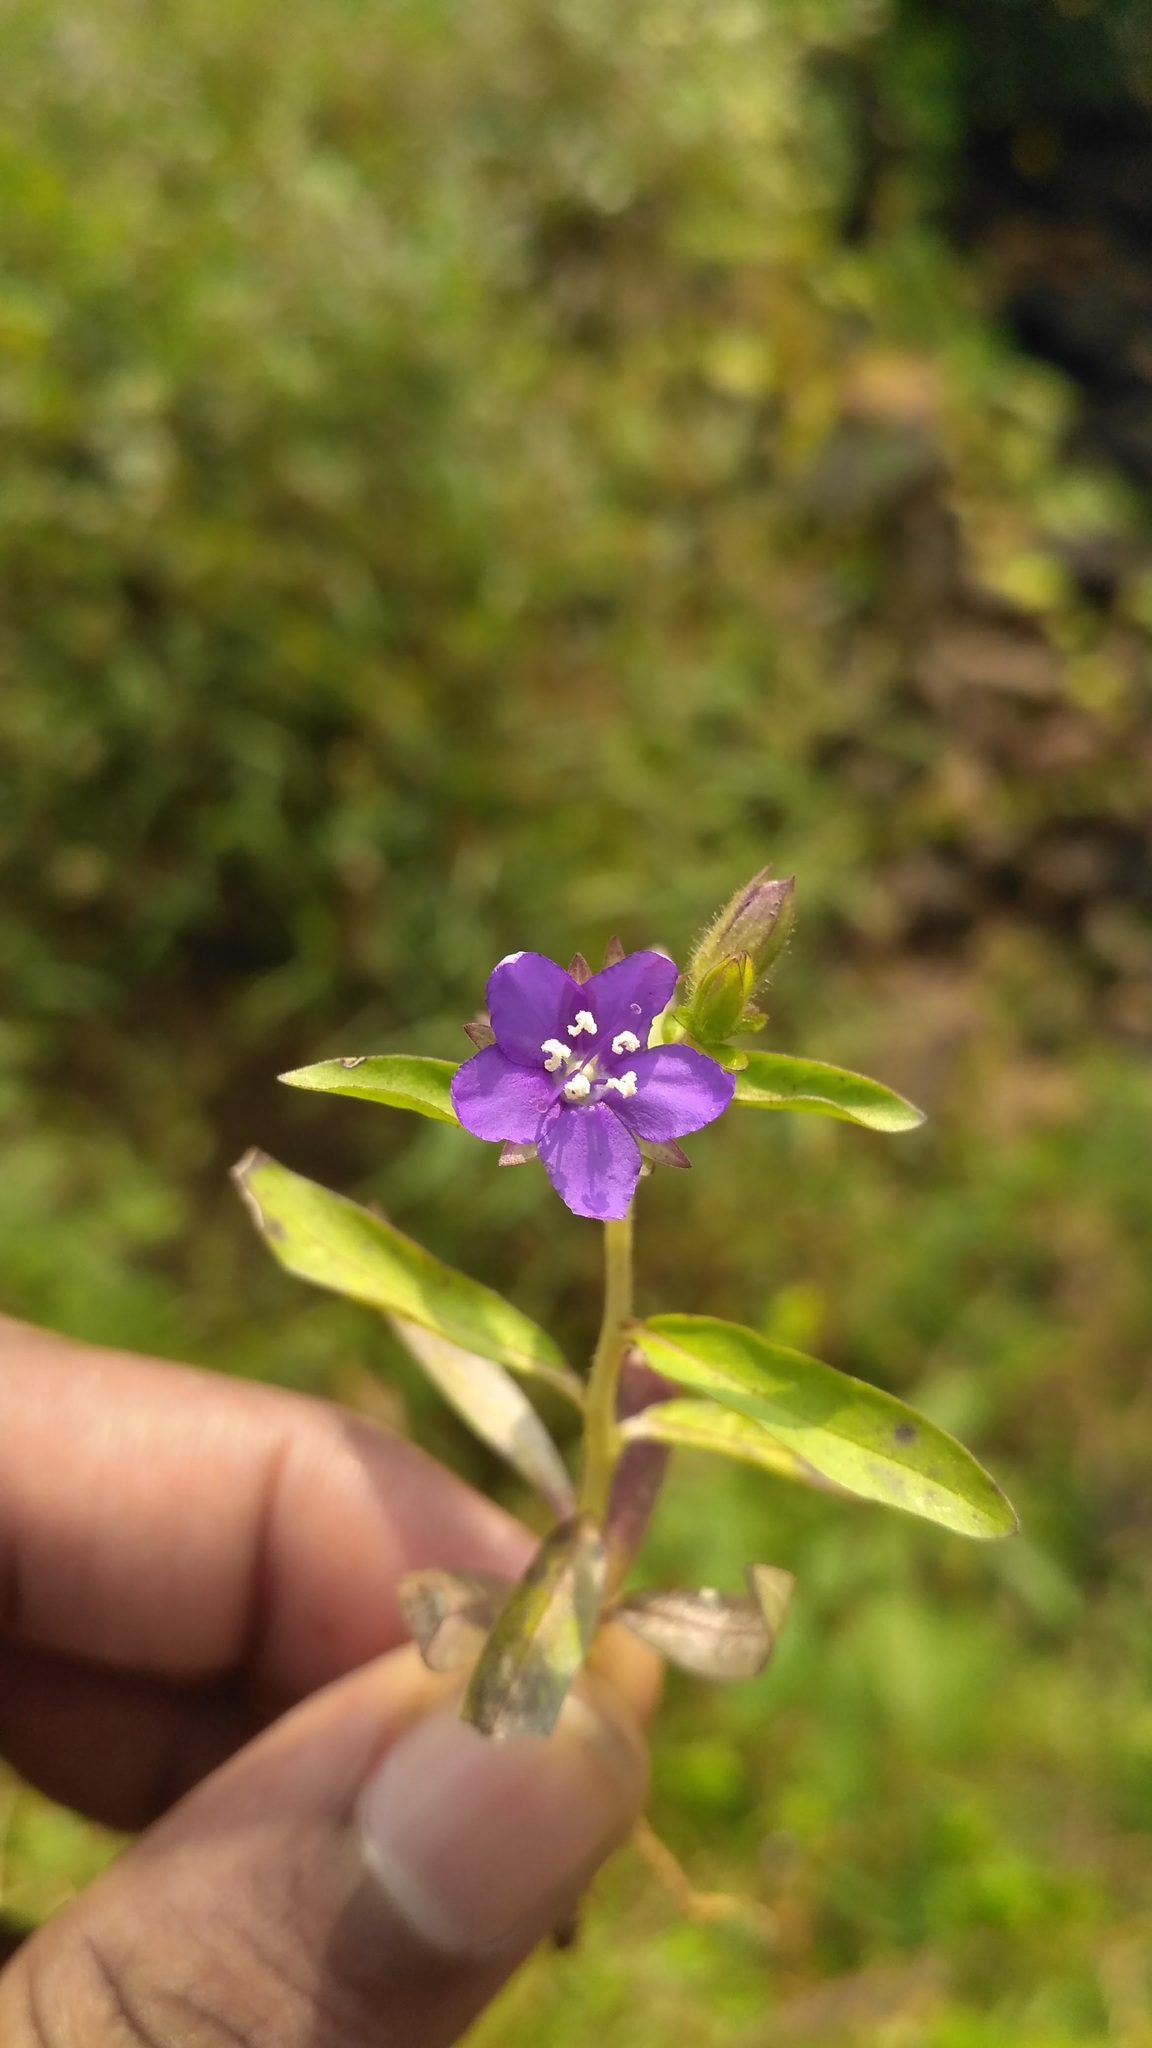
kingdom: Plantae
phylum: Tracheophyta
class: Magnoliopsida
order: Solanales
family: Hydroleaceae
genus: Hydrolea
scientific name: Hydrolea zeylanica
